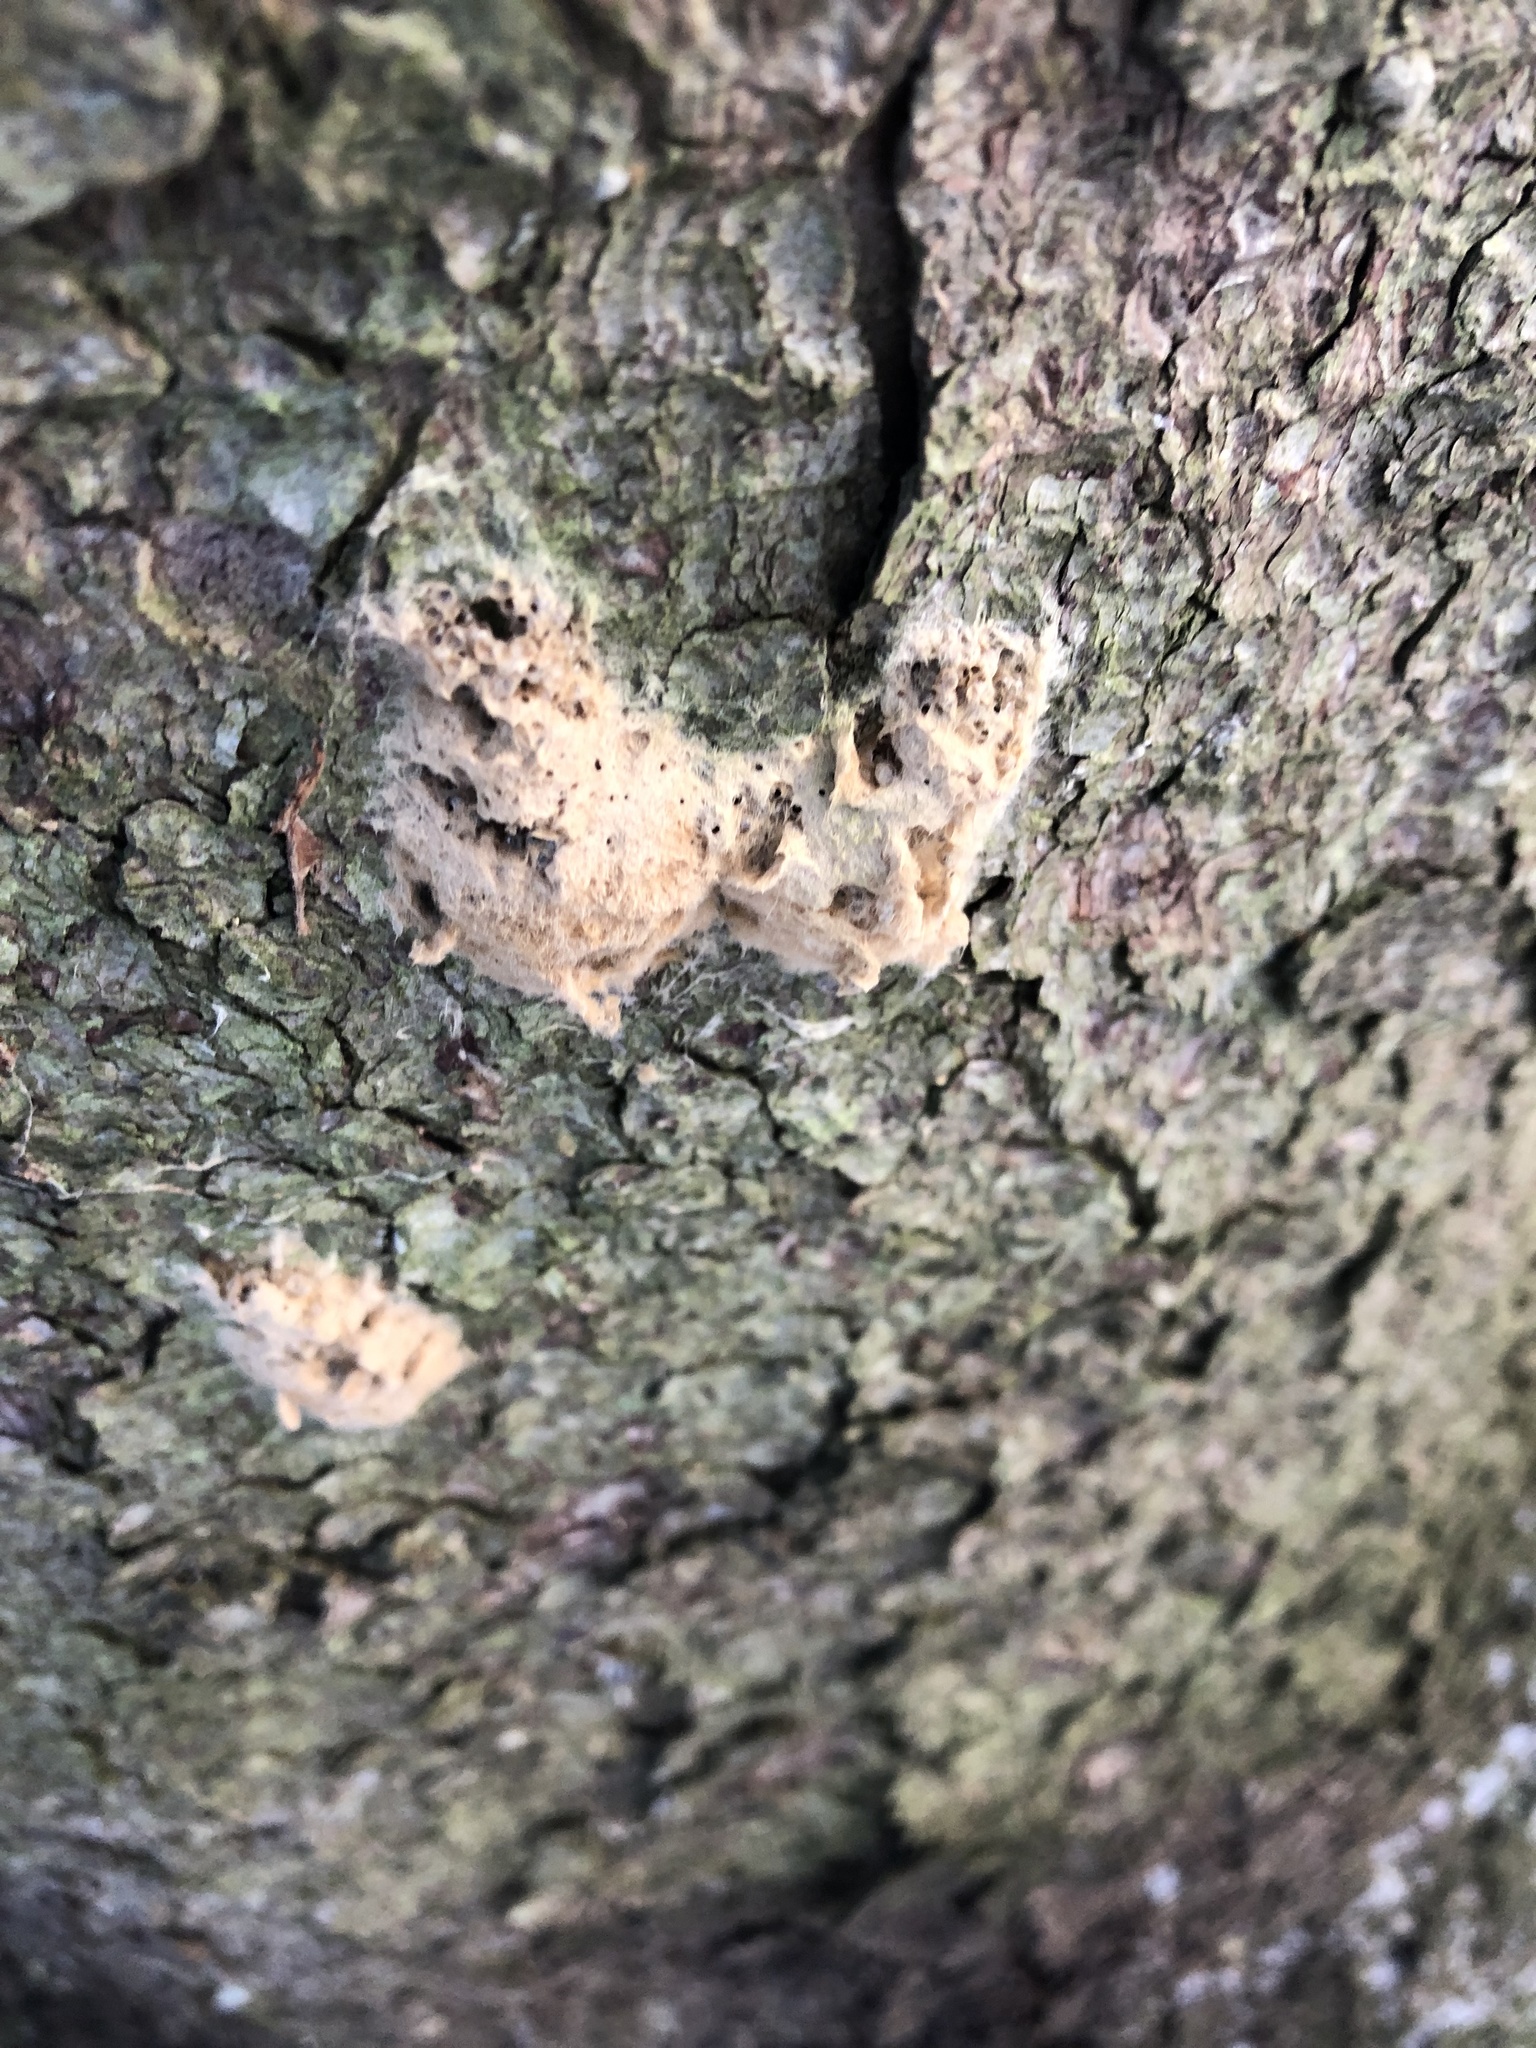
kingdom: Animalia
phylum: Arthropoda
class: Insecta
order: Lepidoptera
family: Erebidae
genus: Lymantria
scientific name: Lymantria dispar
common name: Gypsy moth
